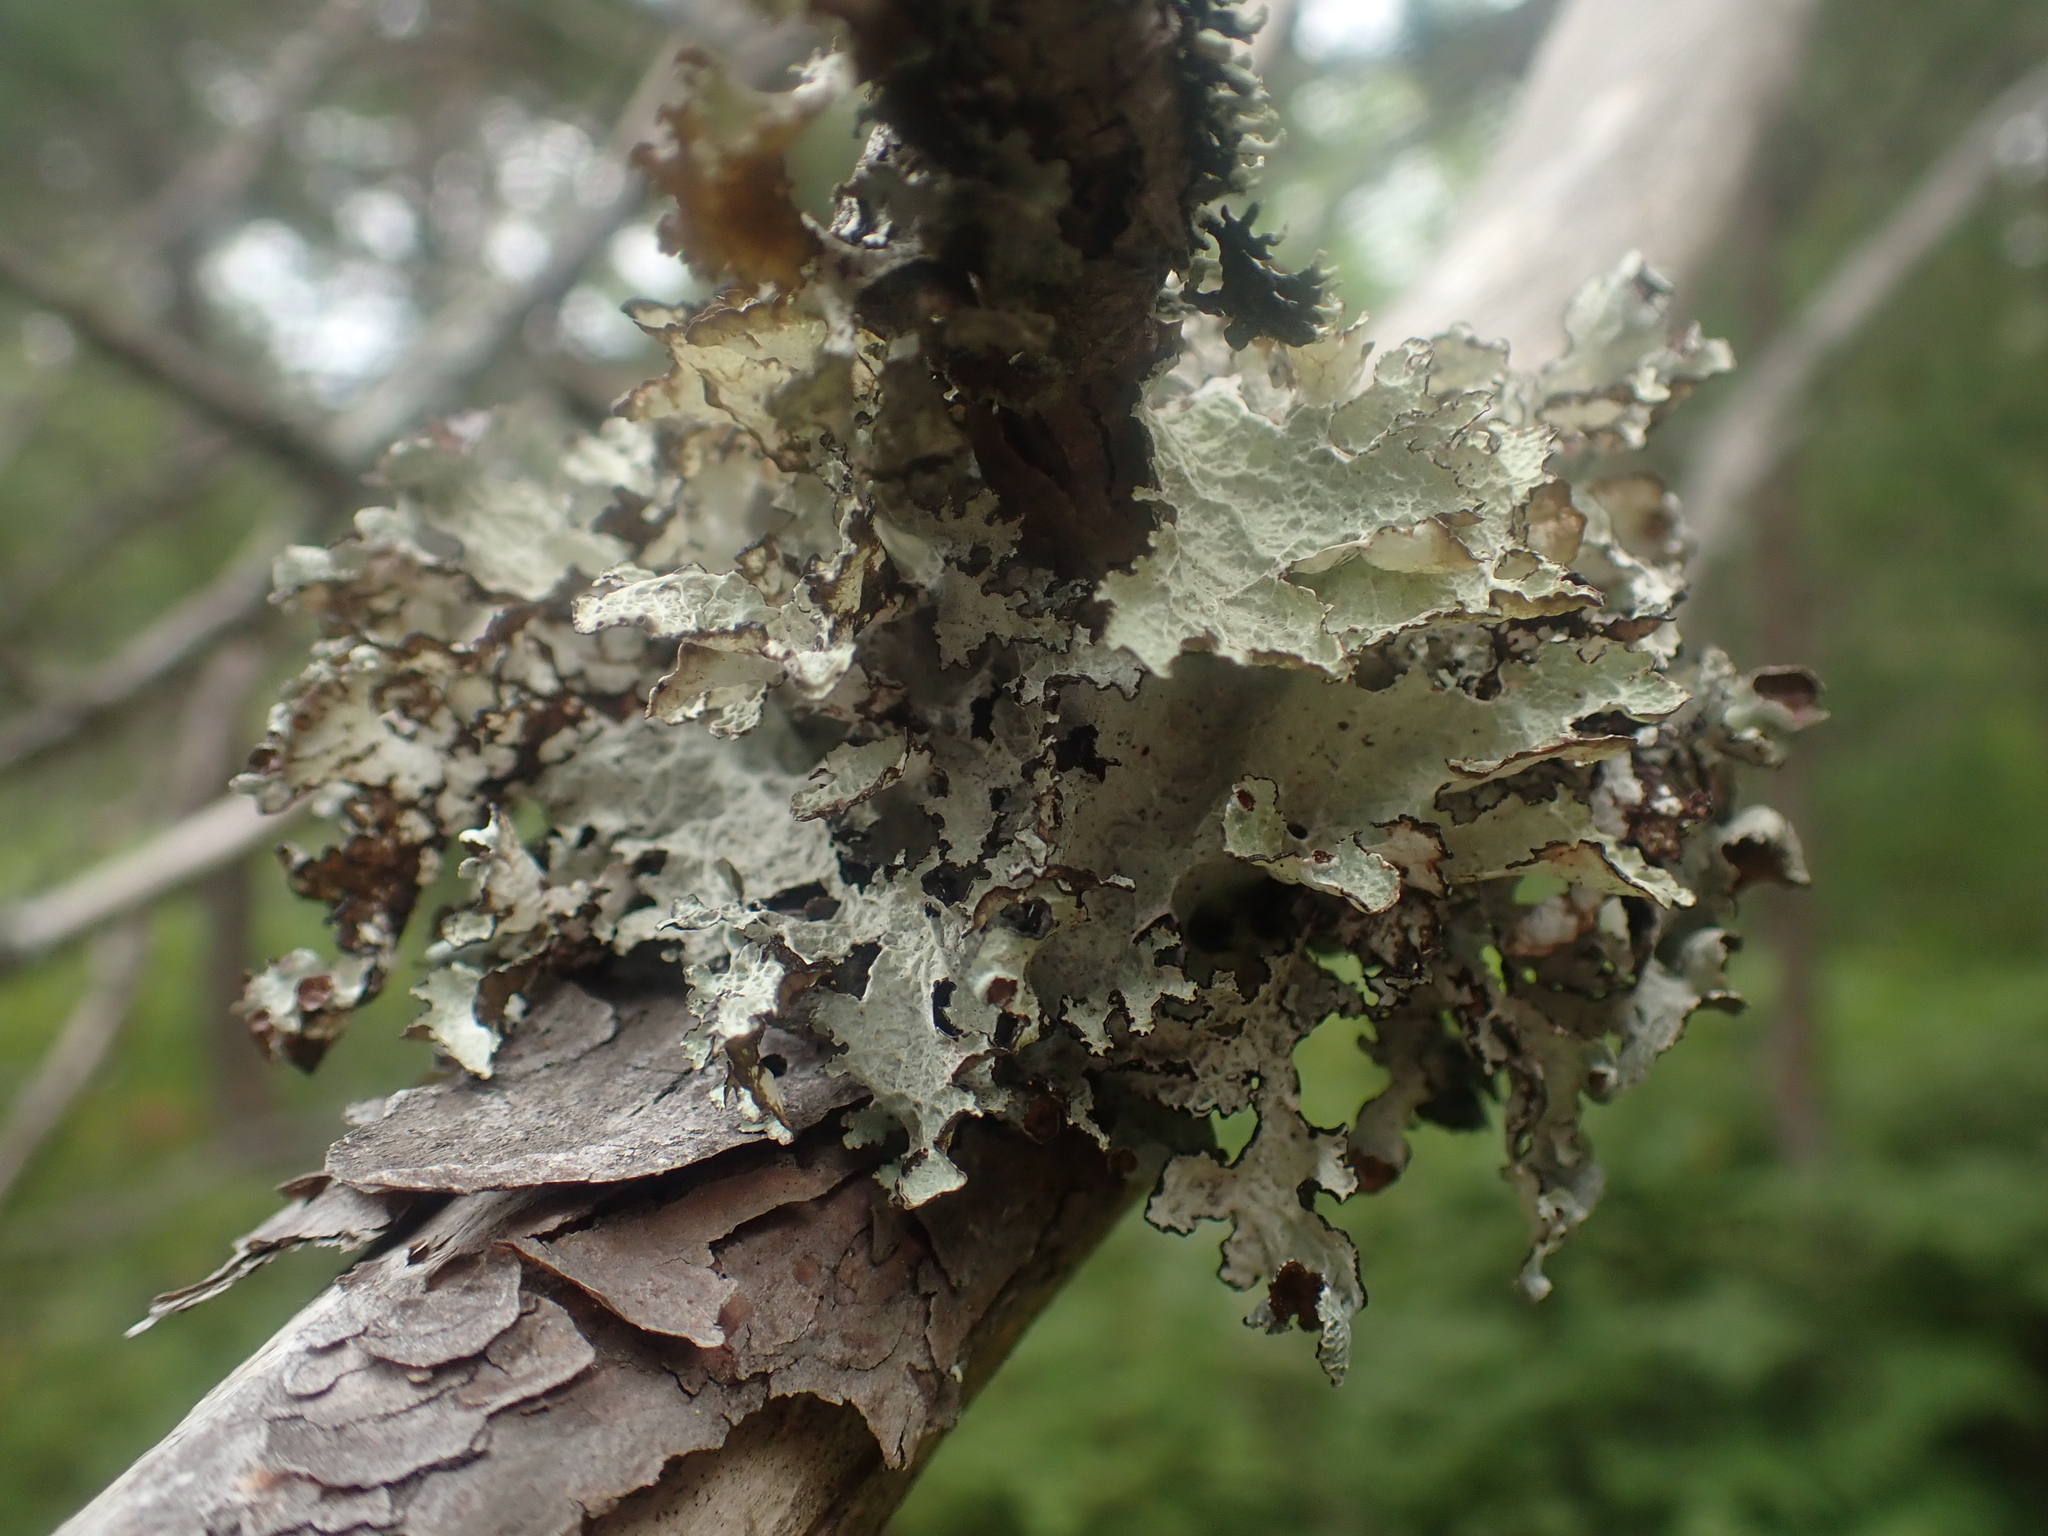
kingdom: Fungi
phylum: Ascomycota
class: Lecanoromycetes
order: Lecanorales
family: Parmeliaceae
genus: Platismatia
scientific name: Platismatia tuckermanii
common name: Crumpled rag lichen
